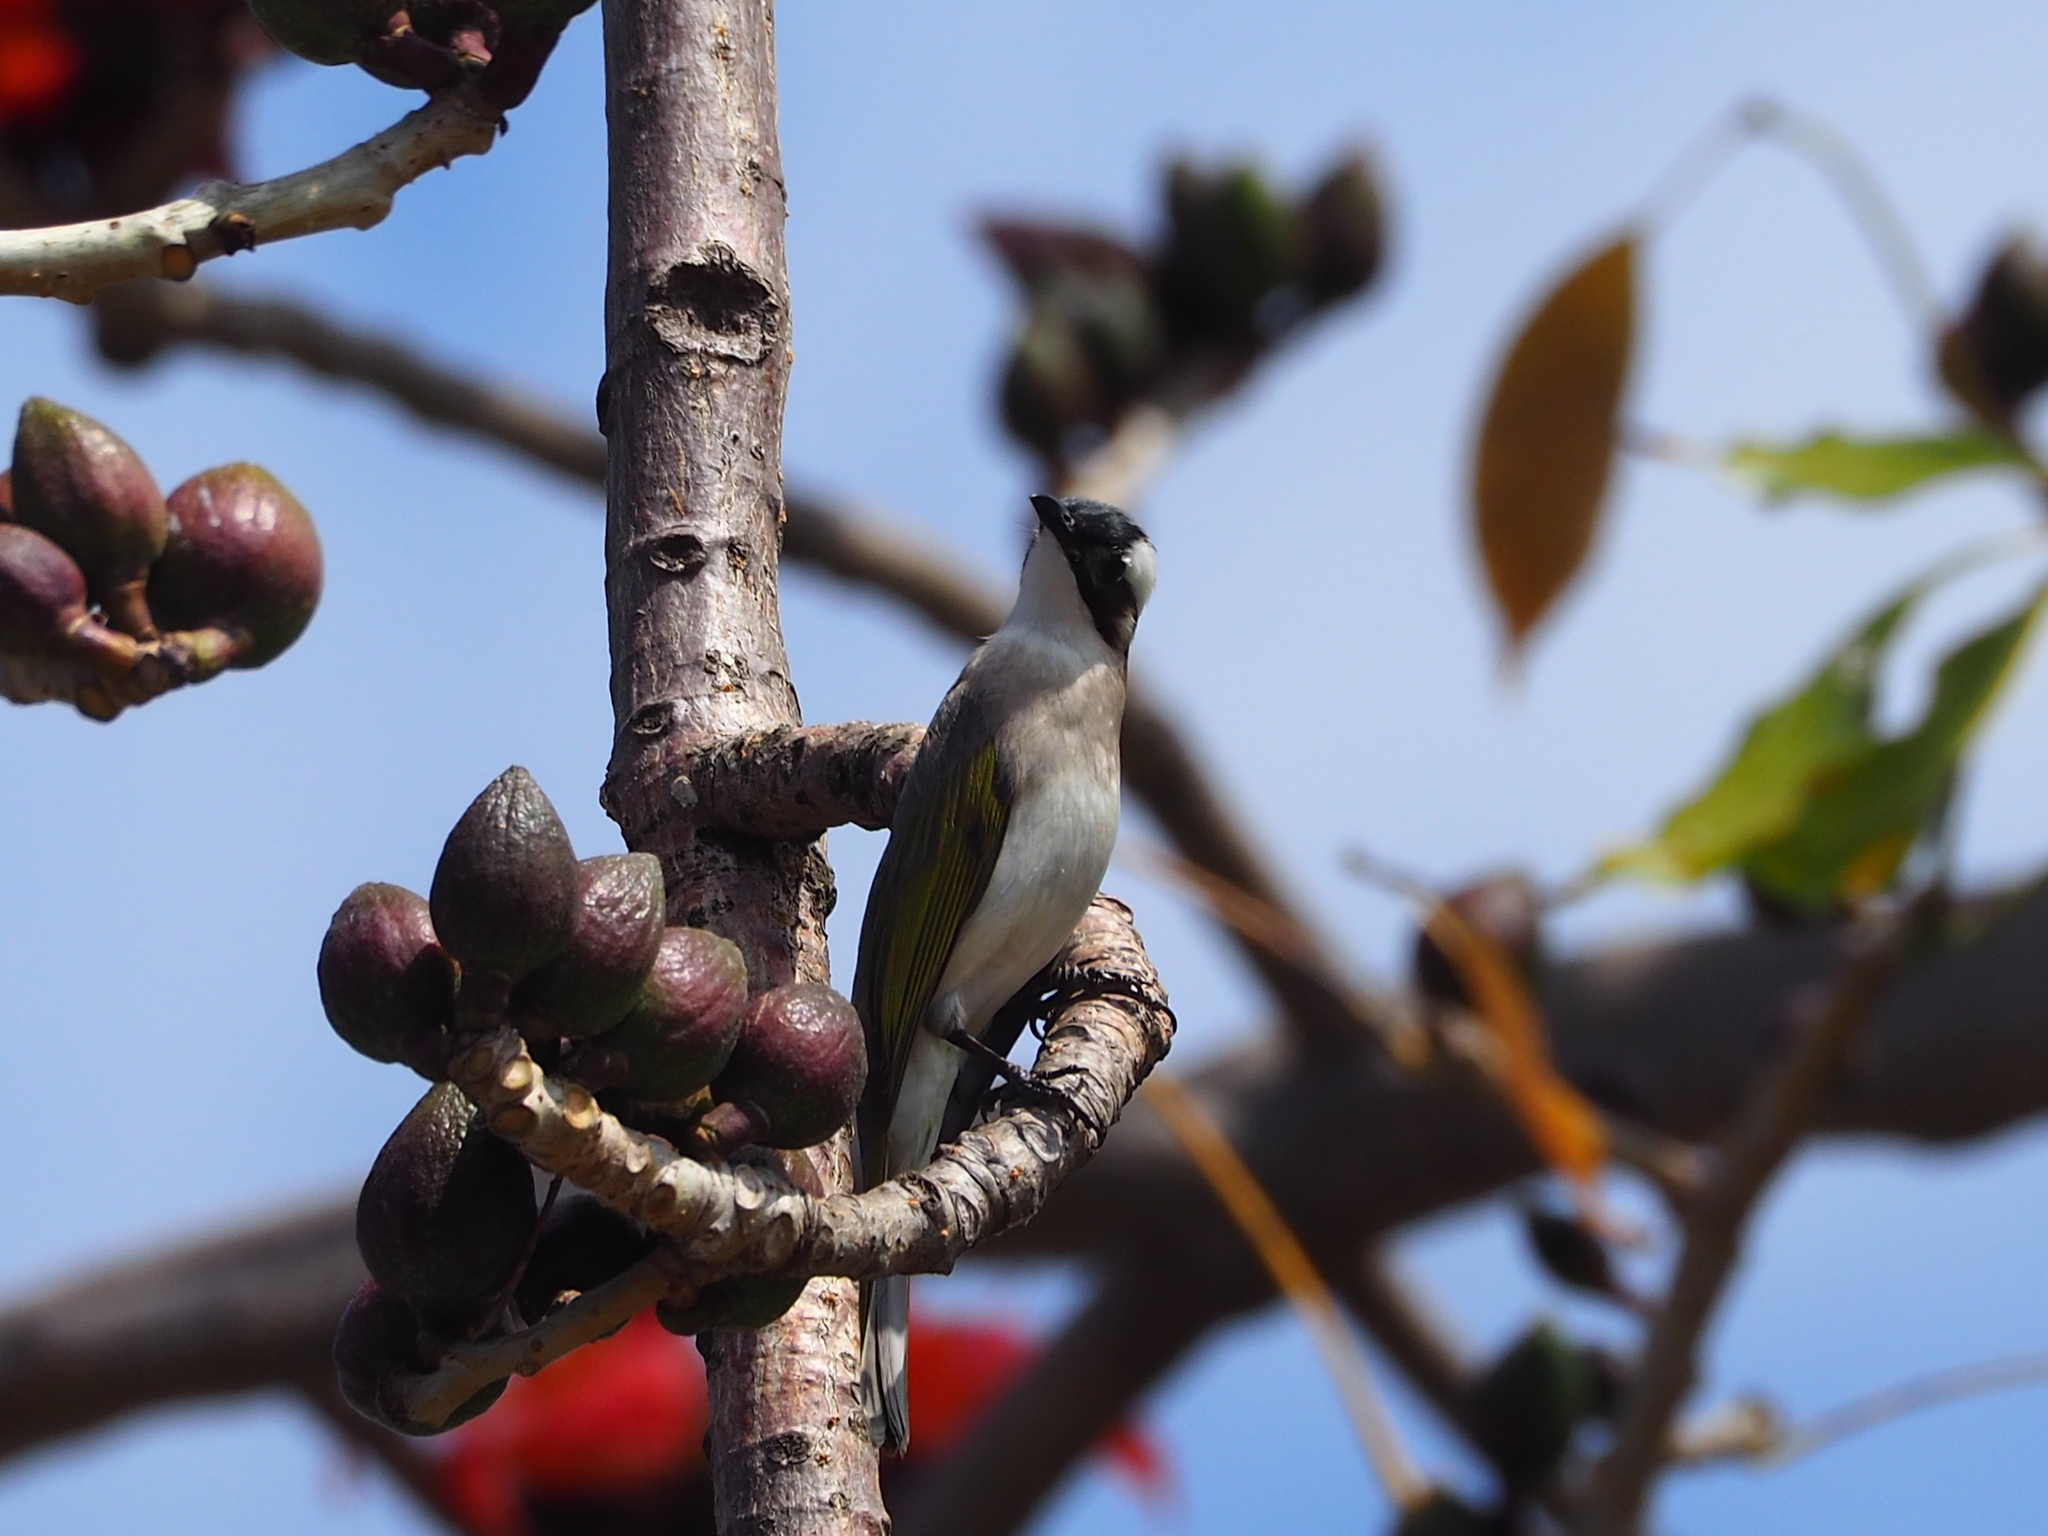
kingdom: Animalia
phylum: Chordata
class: Aves
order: Passeriformes
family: Pycnonotidae
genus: Pycnonotus
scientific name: Pycnonotus sinensis
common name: Light-vented bulbul
